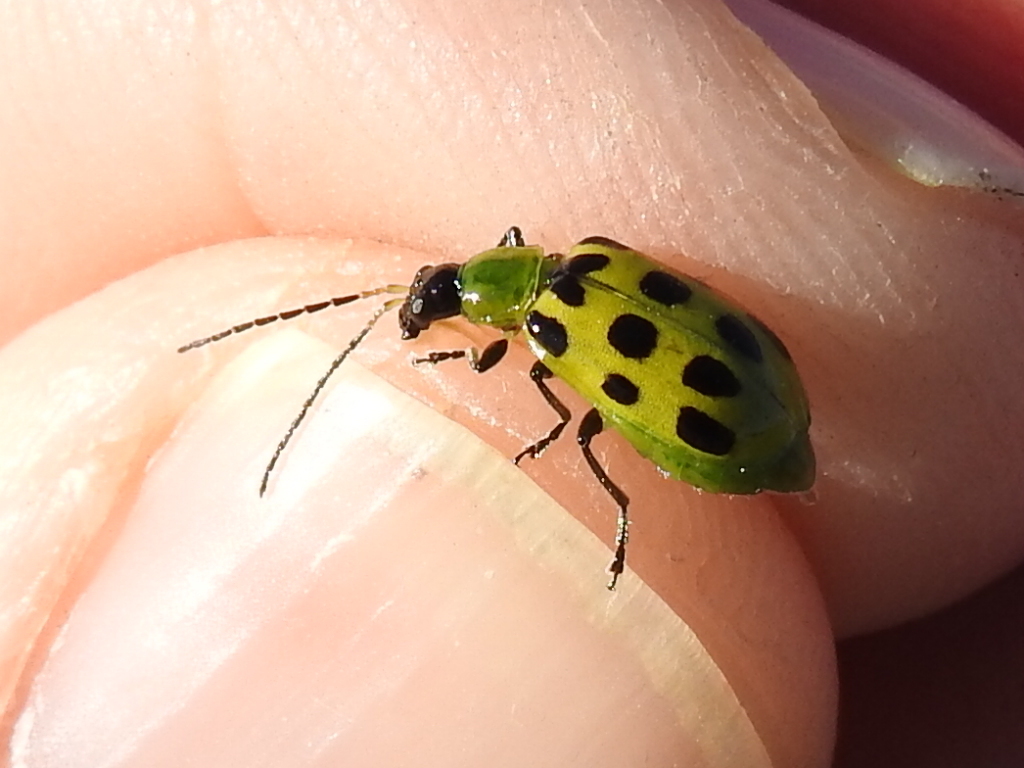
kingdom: Animalia
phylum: Arthropoda
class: Insecta
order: Coleoptera
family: Chrysomelidae
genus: Diabrotica
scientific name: Diabrotica undecimpunctata
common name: Spotted cucumber beetle
